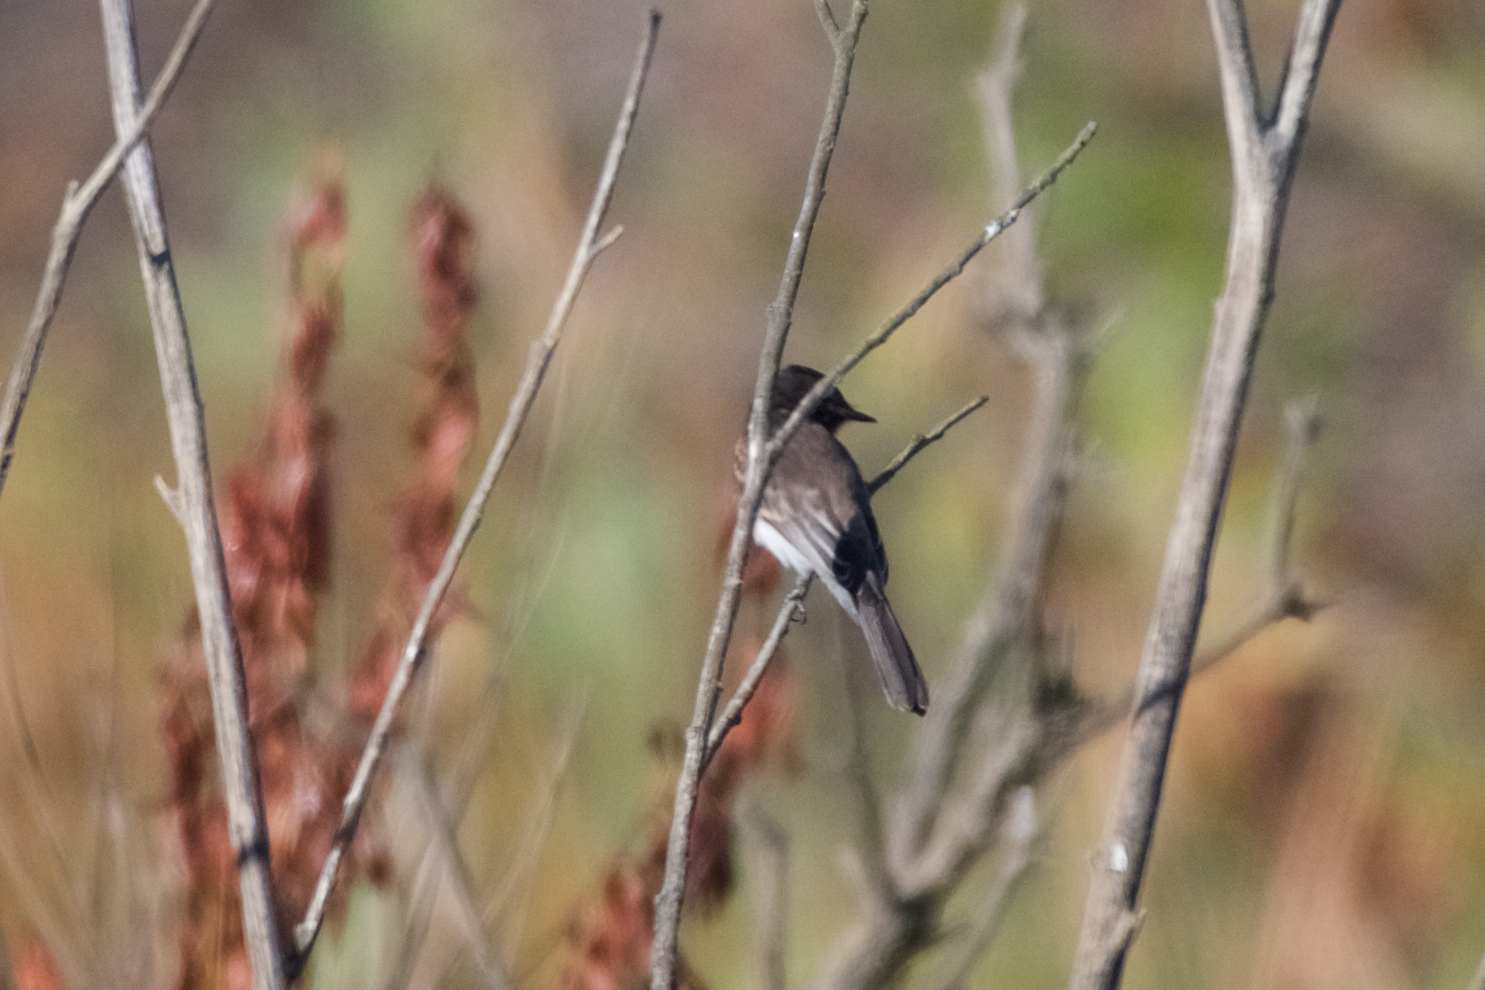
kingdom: Animalia
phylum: Chordata
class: Aves
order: Passeriformes
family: Tyrannidae
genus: Sayornis
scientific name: Sayornis nigricans
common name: Black phoebe
